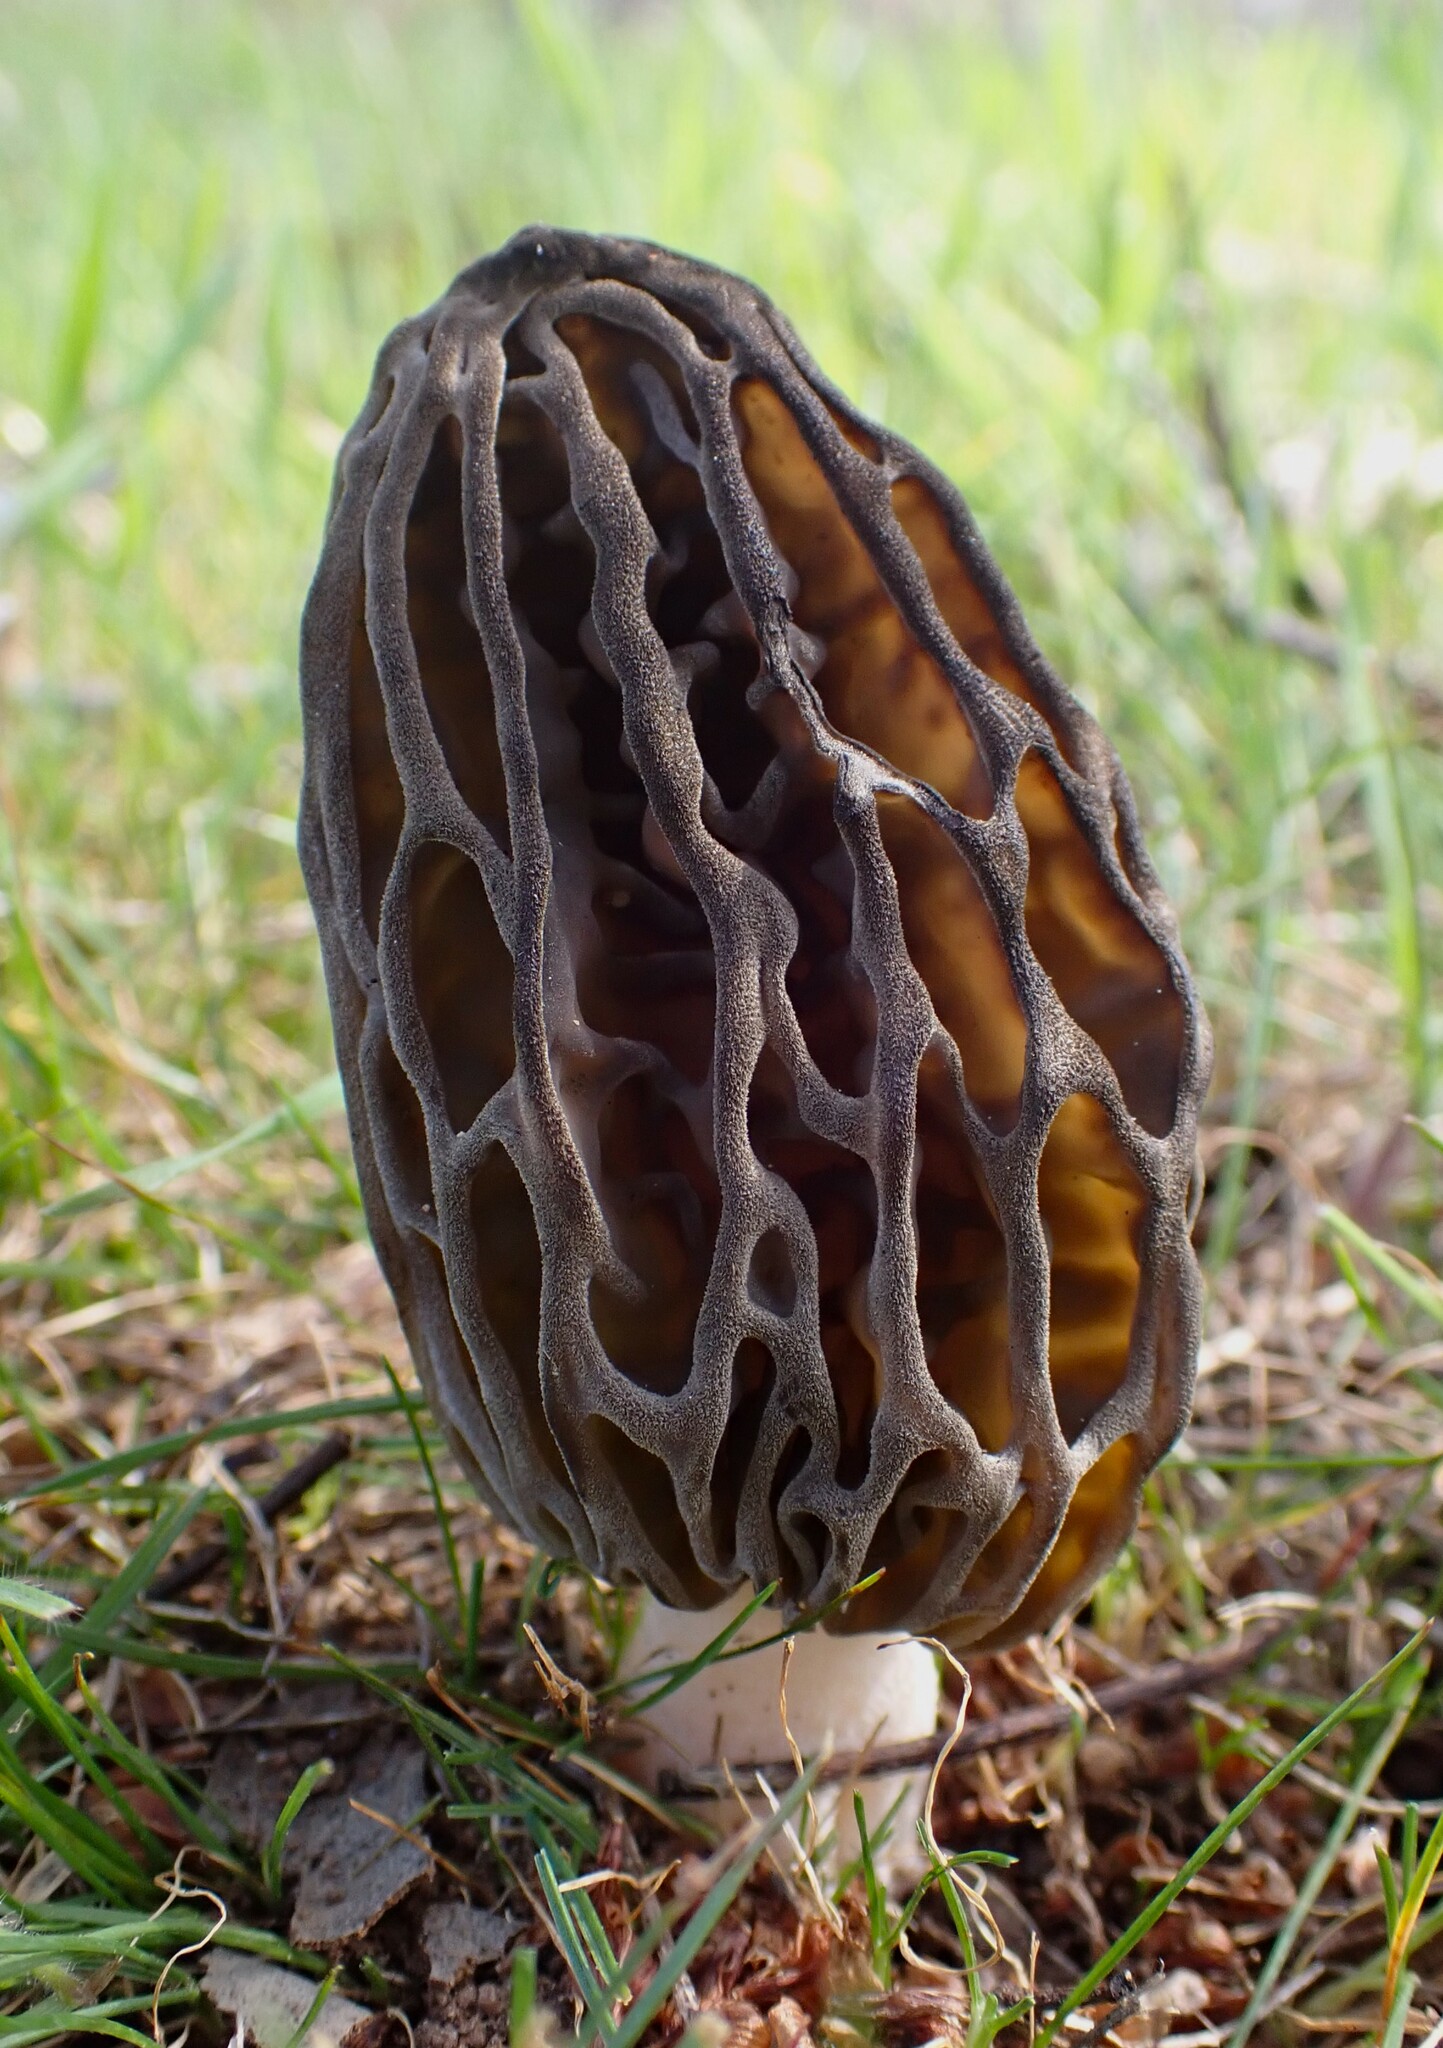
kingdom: Fungi
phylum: Ascomycota
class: Pezizomycetes
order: Pezizales
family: Morchellaceae
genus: Morchella
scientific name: Morchella australiana
